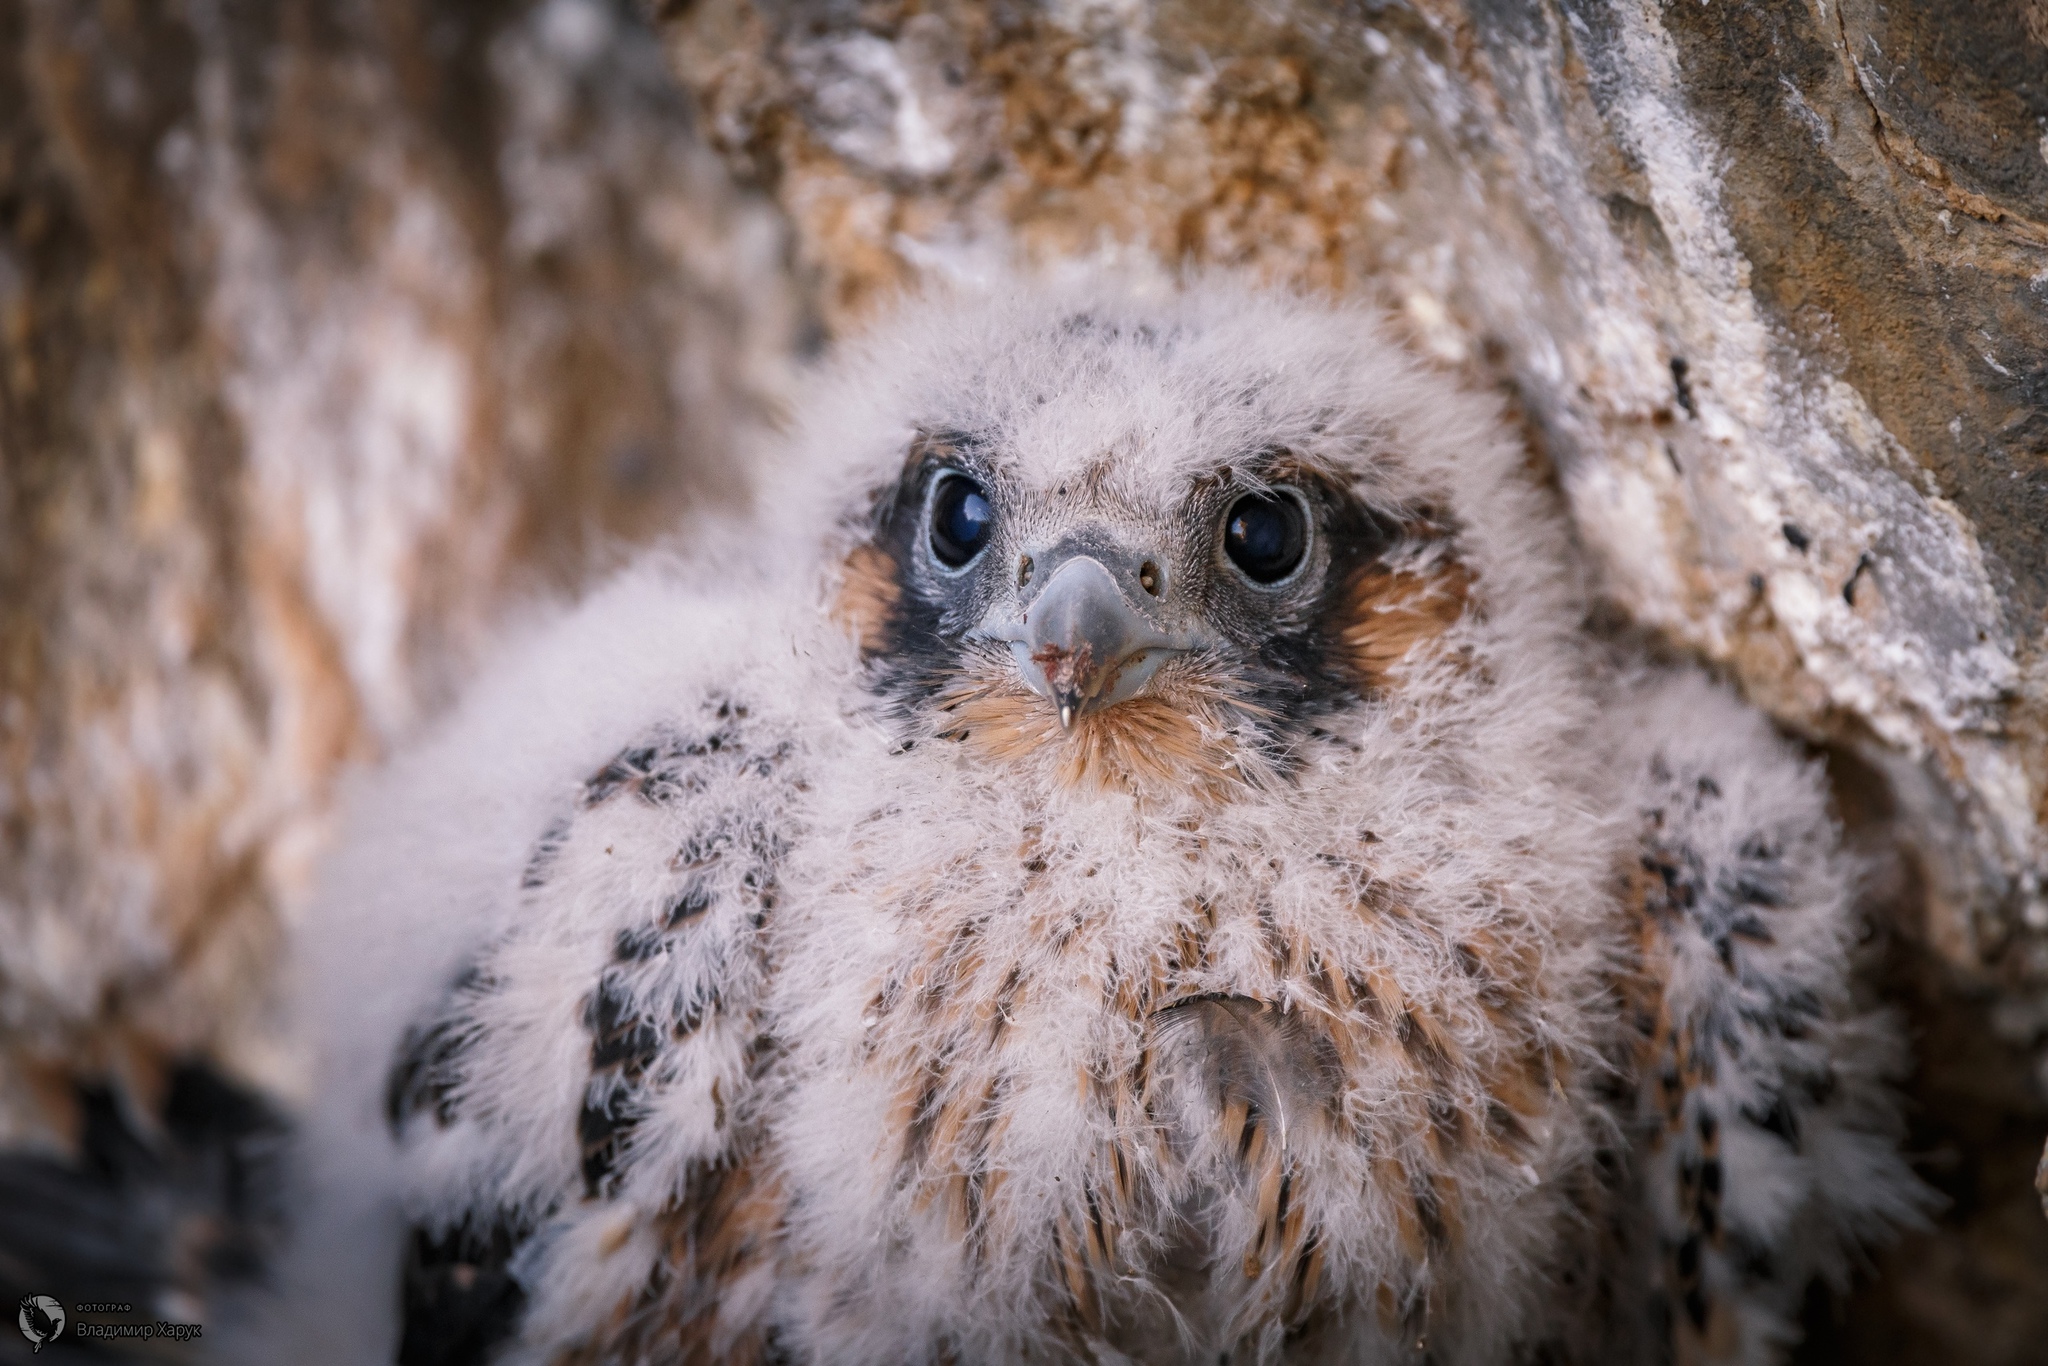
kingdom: Animalia
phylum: Chordata
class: Aves
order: Falconiformes
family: Falconidae
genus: Falco
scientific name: Falco peregrinus
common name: Peregrine falcon
